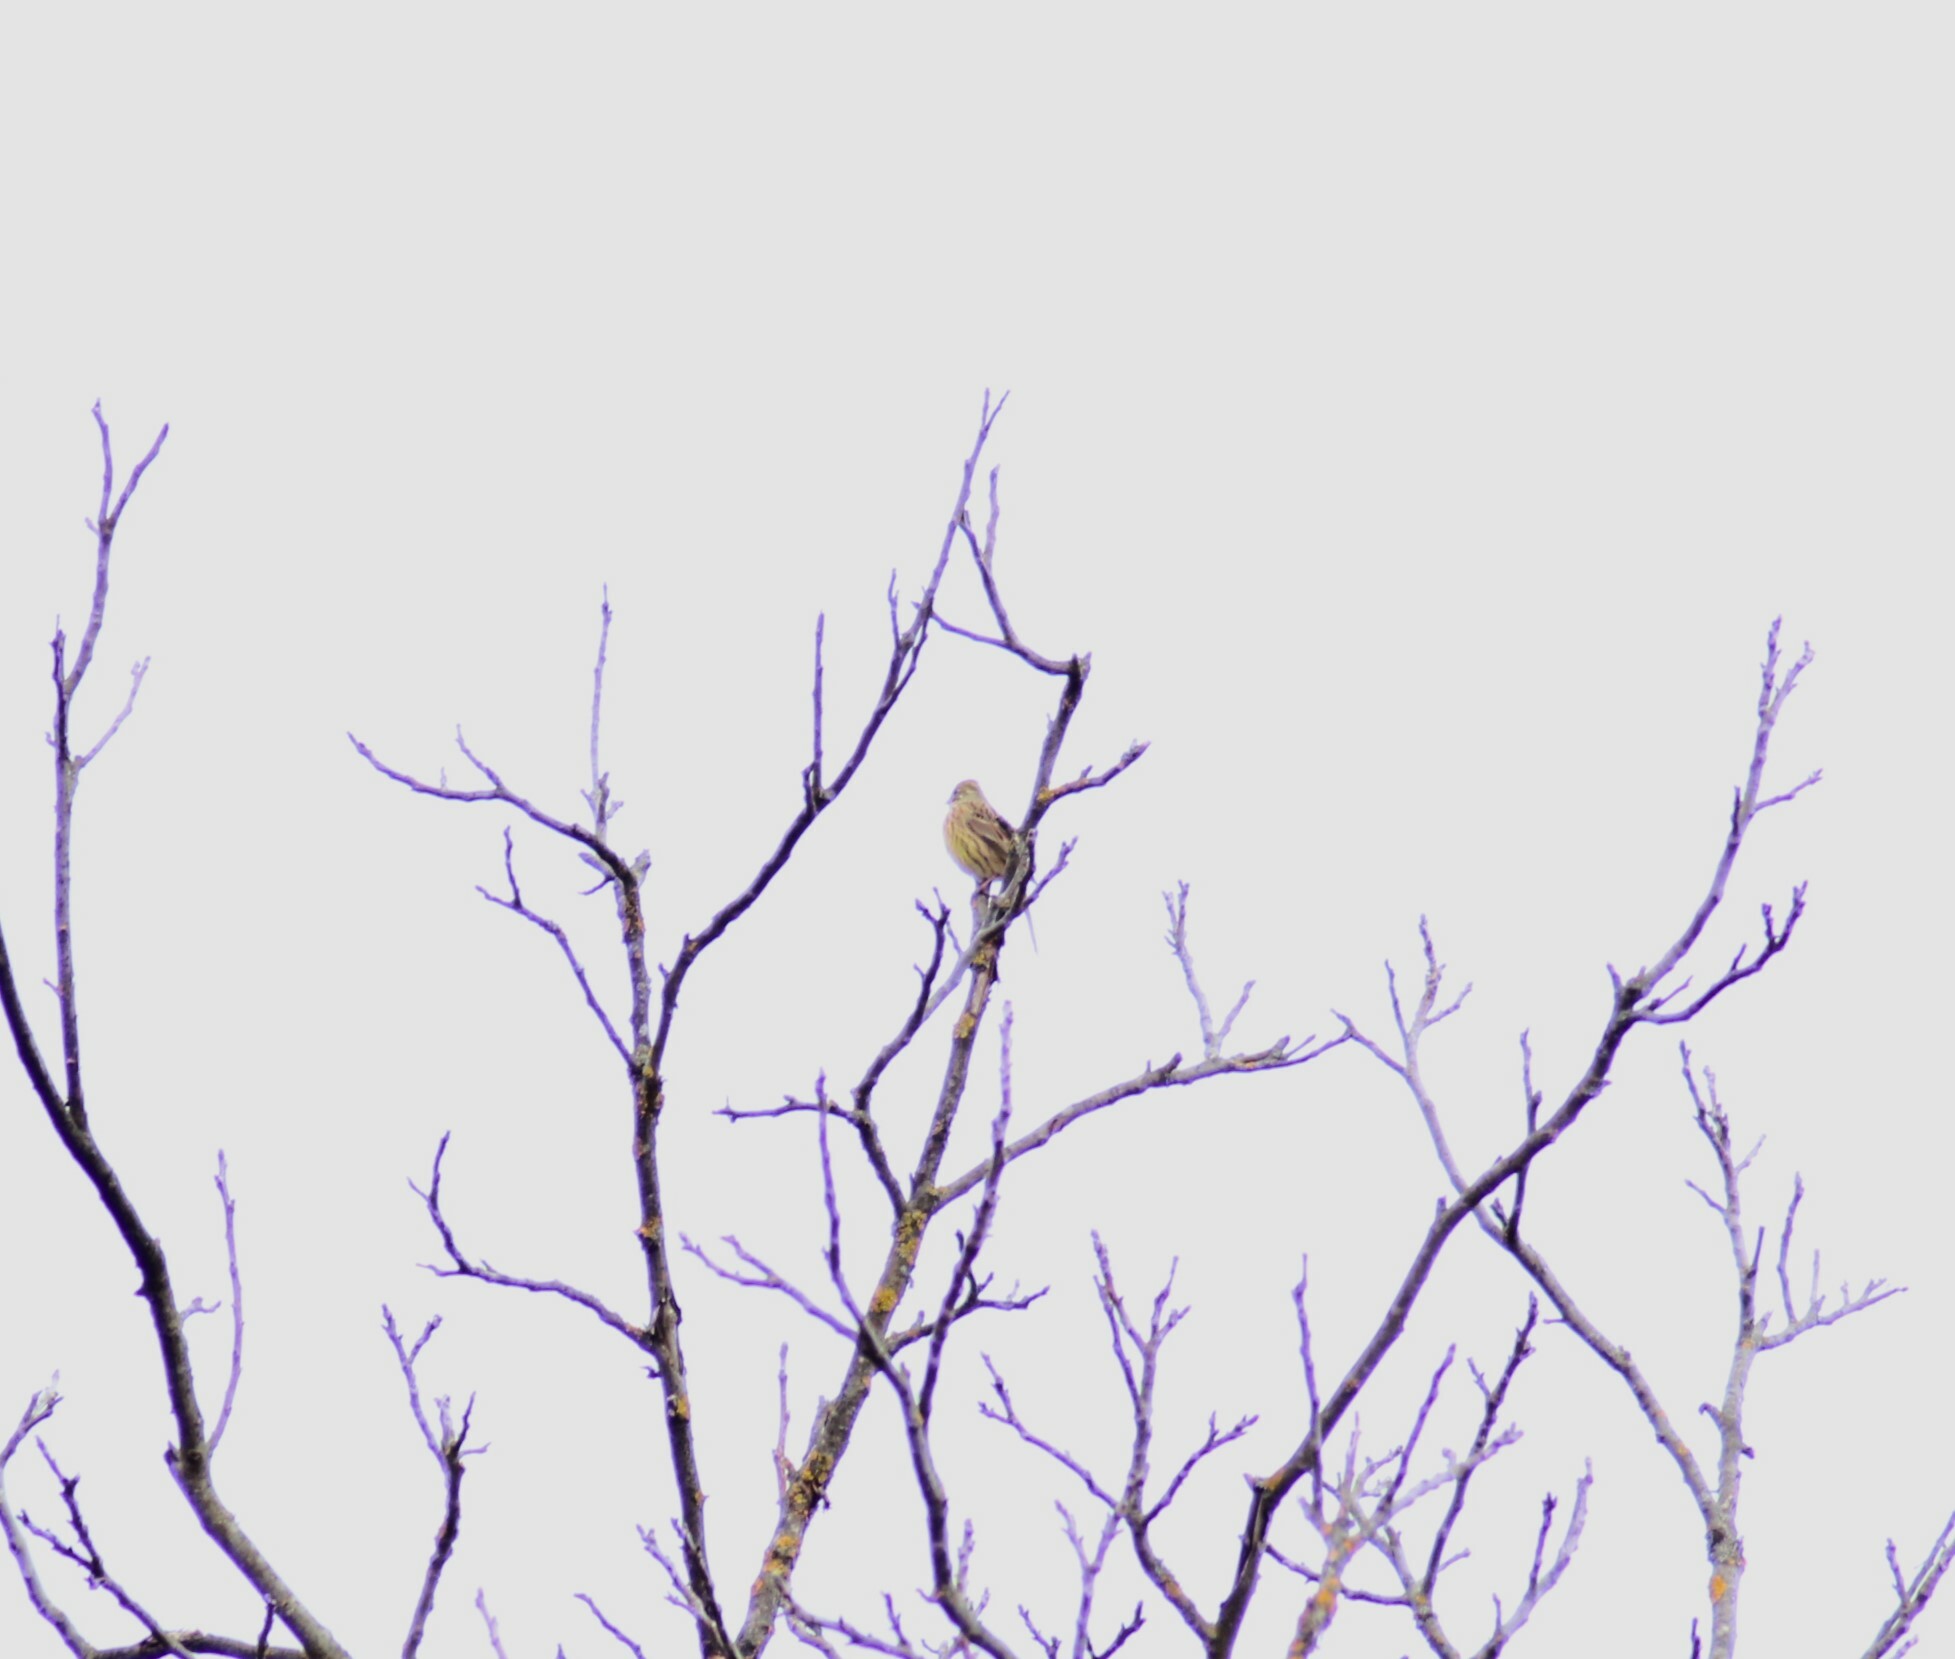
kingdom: Animalia
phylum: Chordata
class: Aves
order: Passeriformes
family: Emberizidae
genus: Emberiza
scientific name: Emberiza citrinella
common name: Yellowhammer
